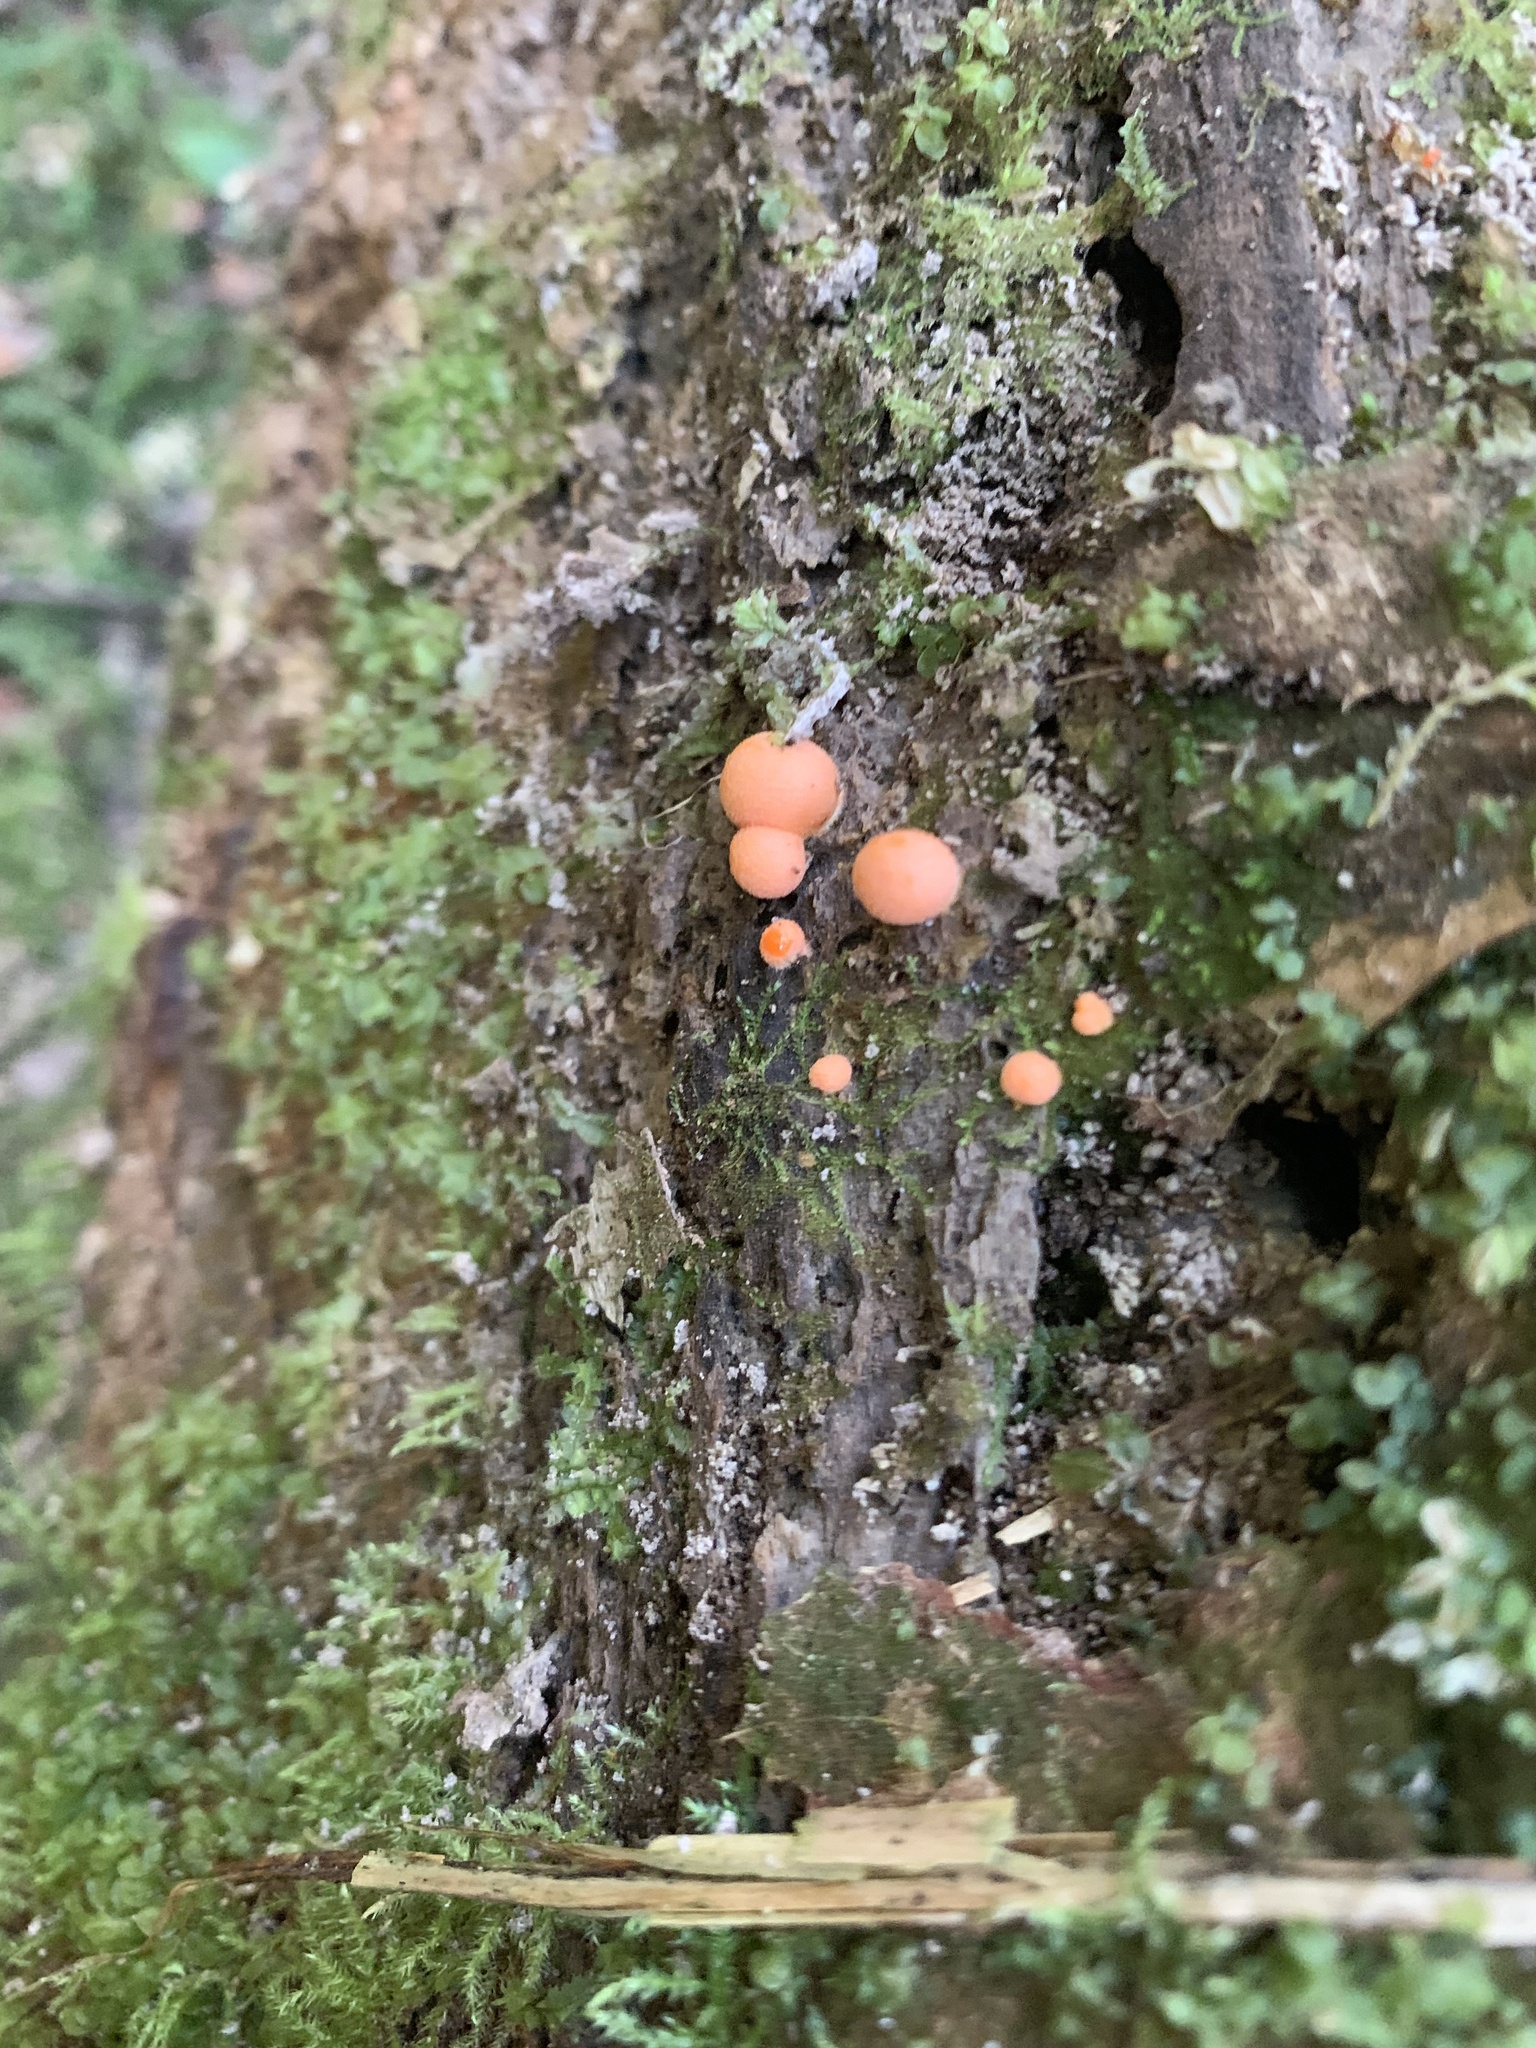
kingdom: Protozoa
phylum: Mycetozoa
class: Myxomycetes
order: Cribrariales
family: Tubiferaceae
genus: Lycogala
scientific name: Lycogala epidendrum
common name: Wolf's milk
